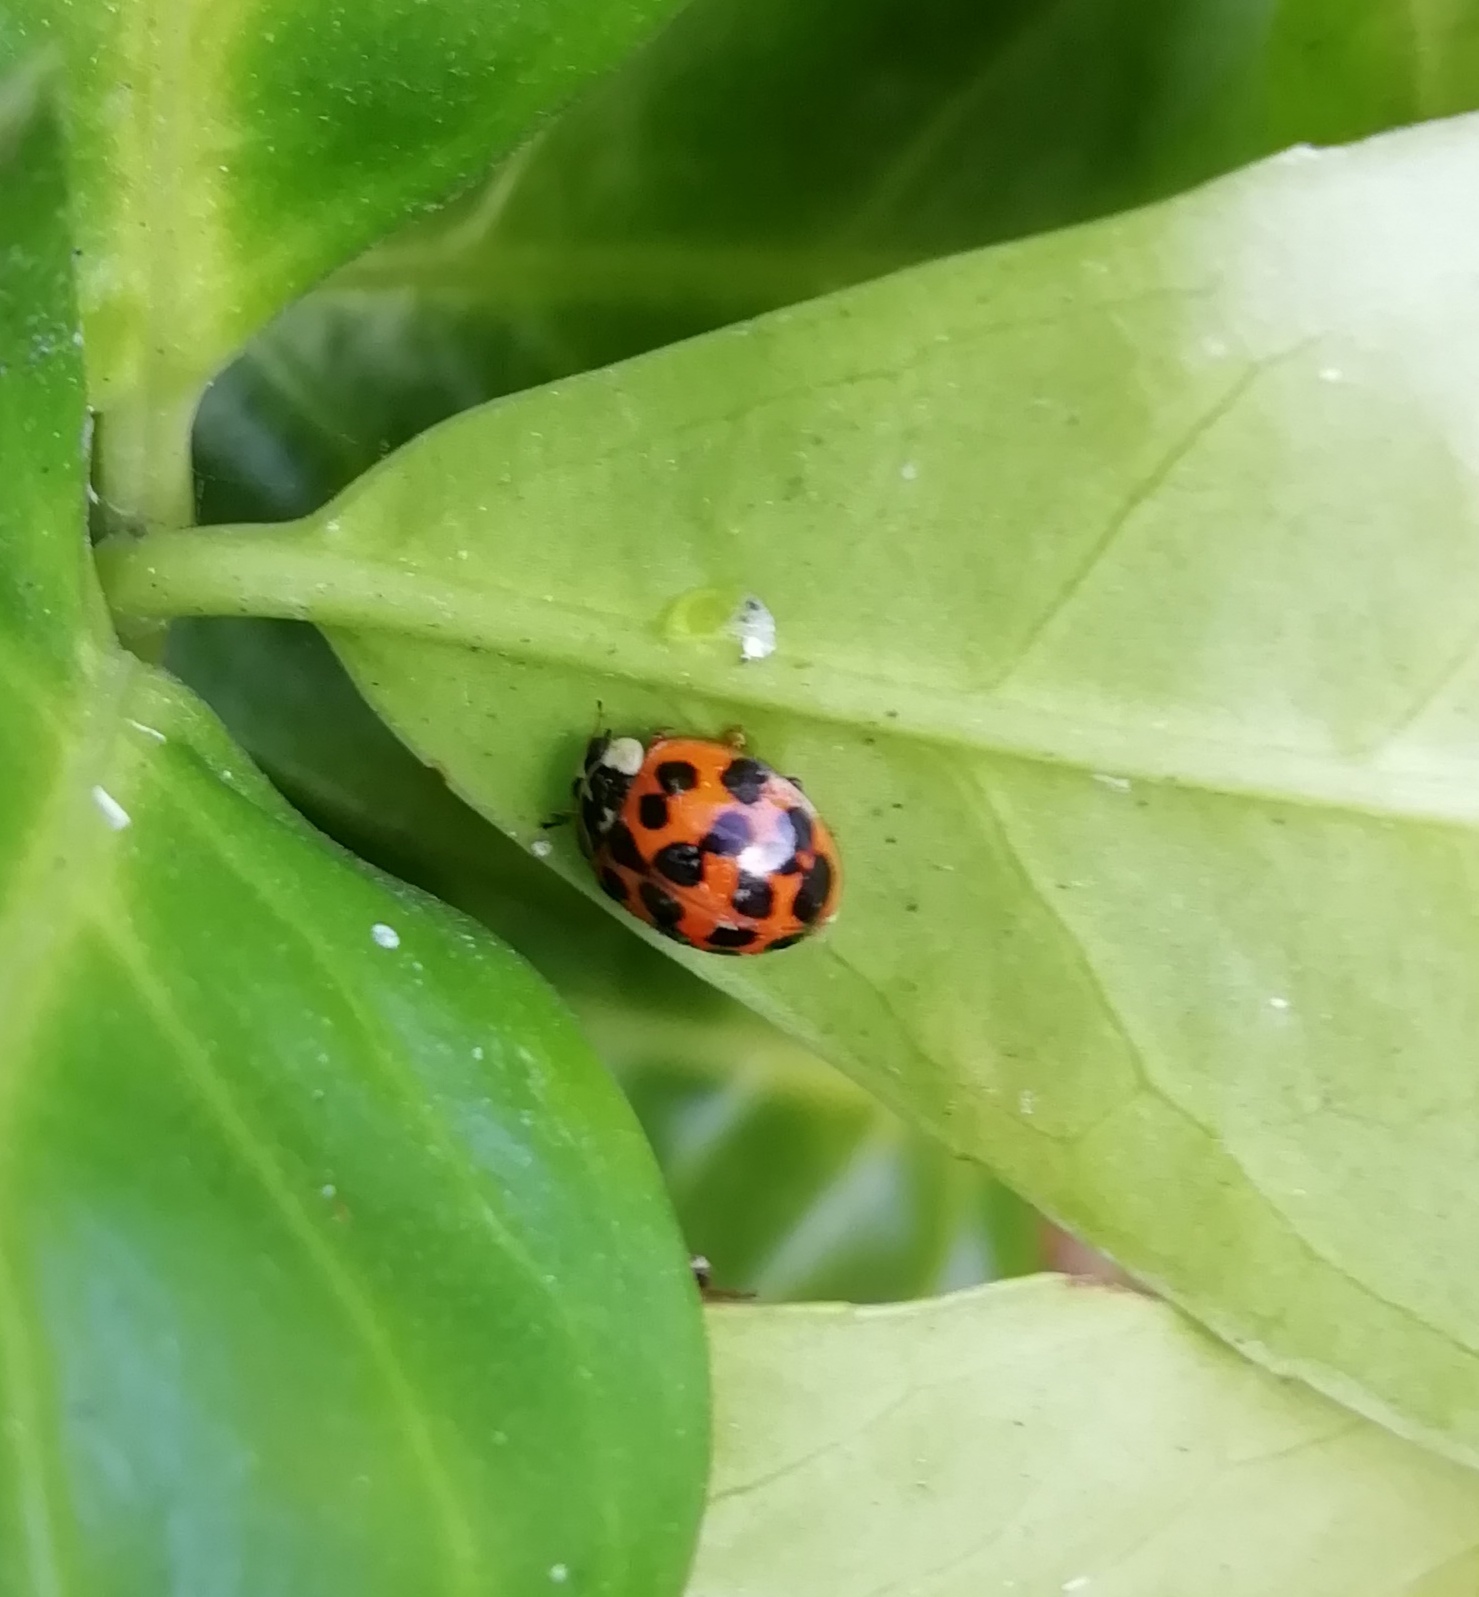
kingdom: Animalia
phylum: Arthropoda
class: Insecta
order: Coleoptera
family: Coccinellidae
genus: Harmonia
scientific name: Harmonia axyridis
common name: Harlequin ladybird
